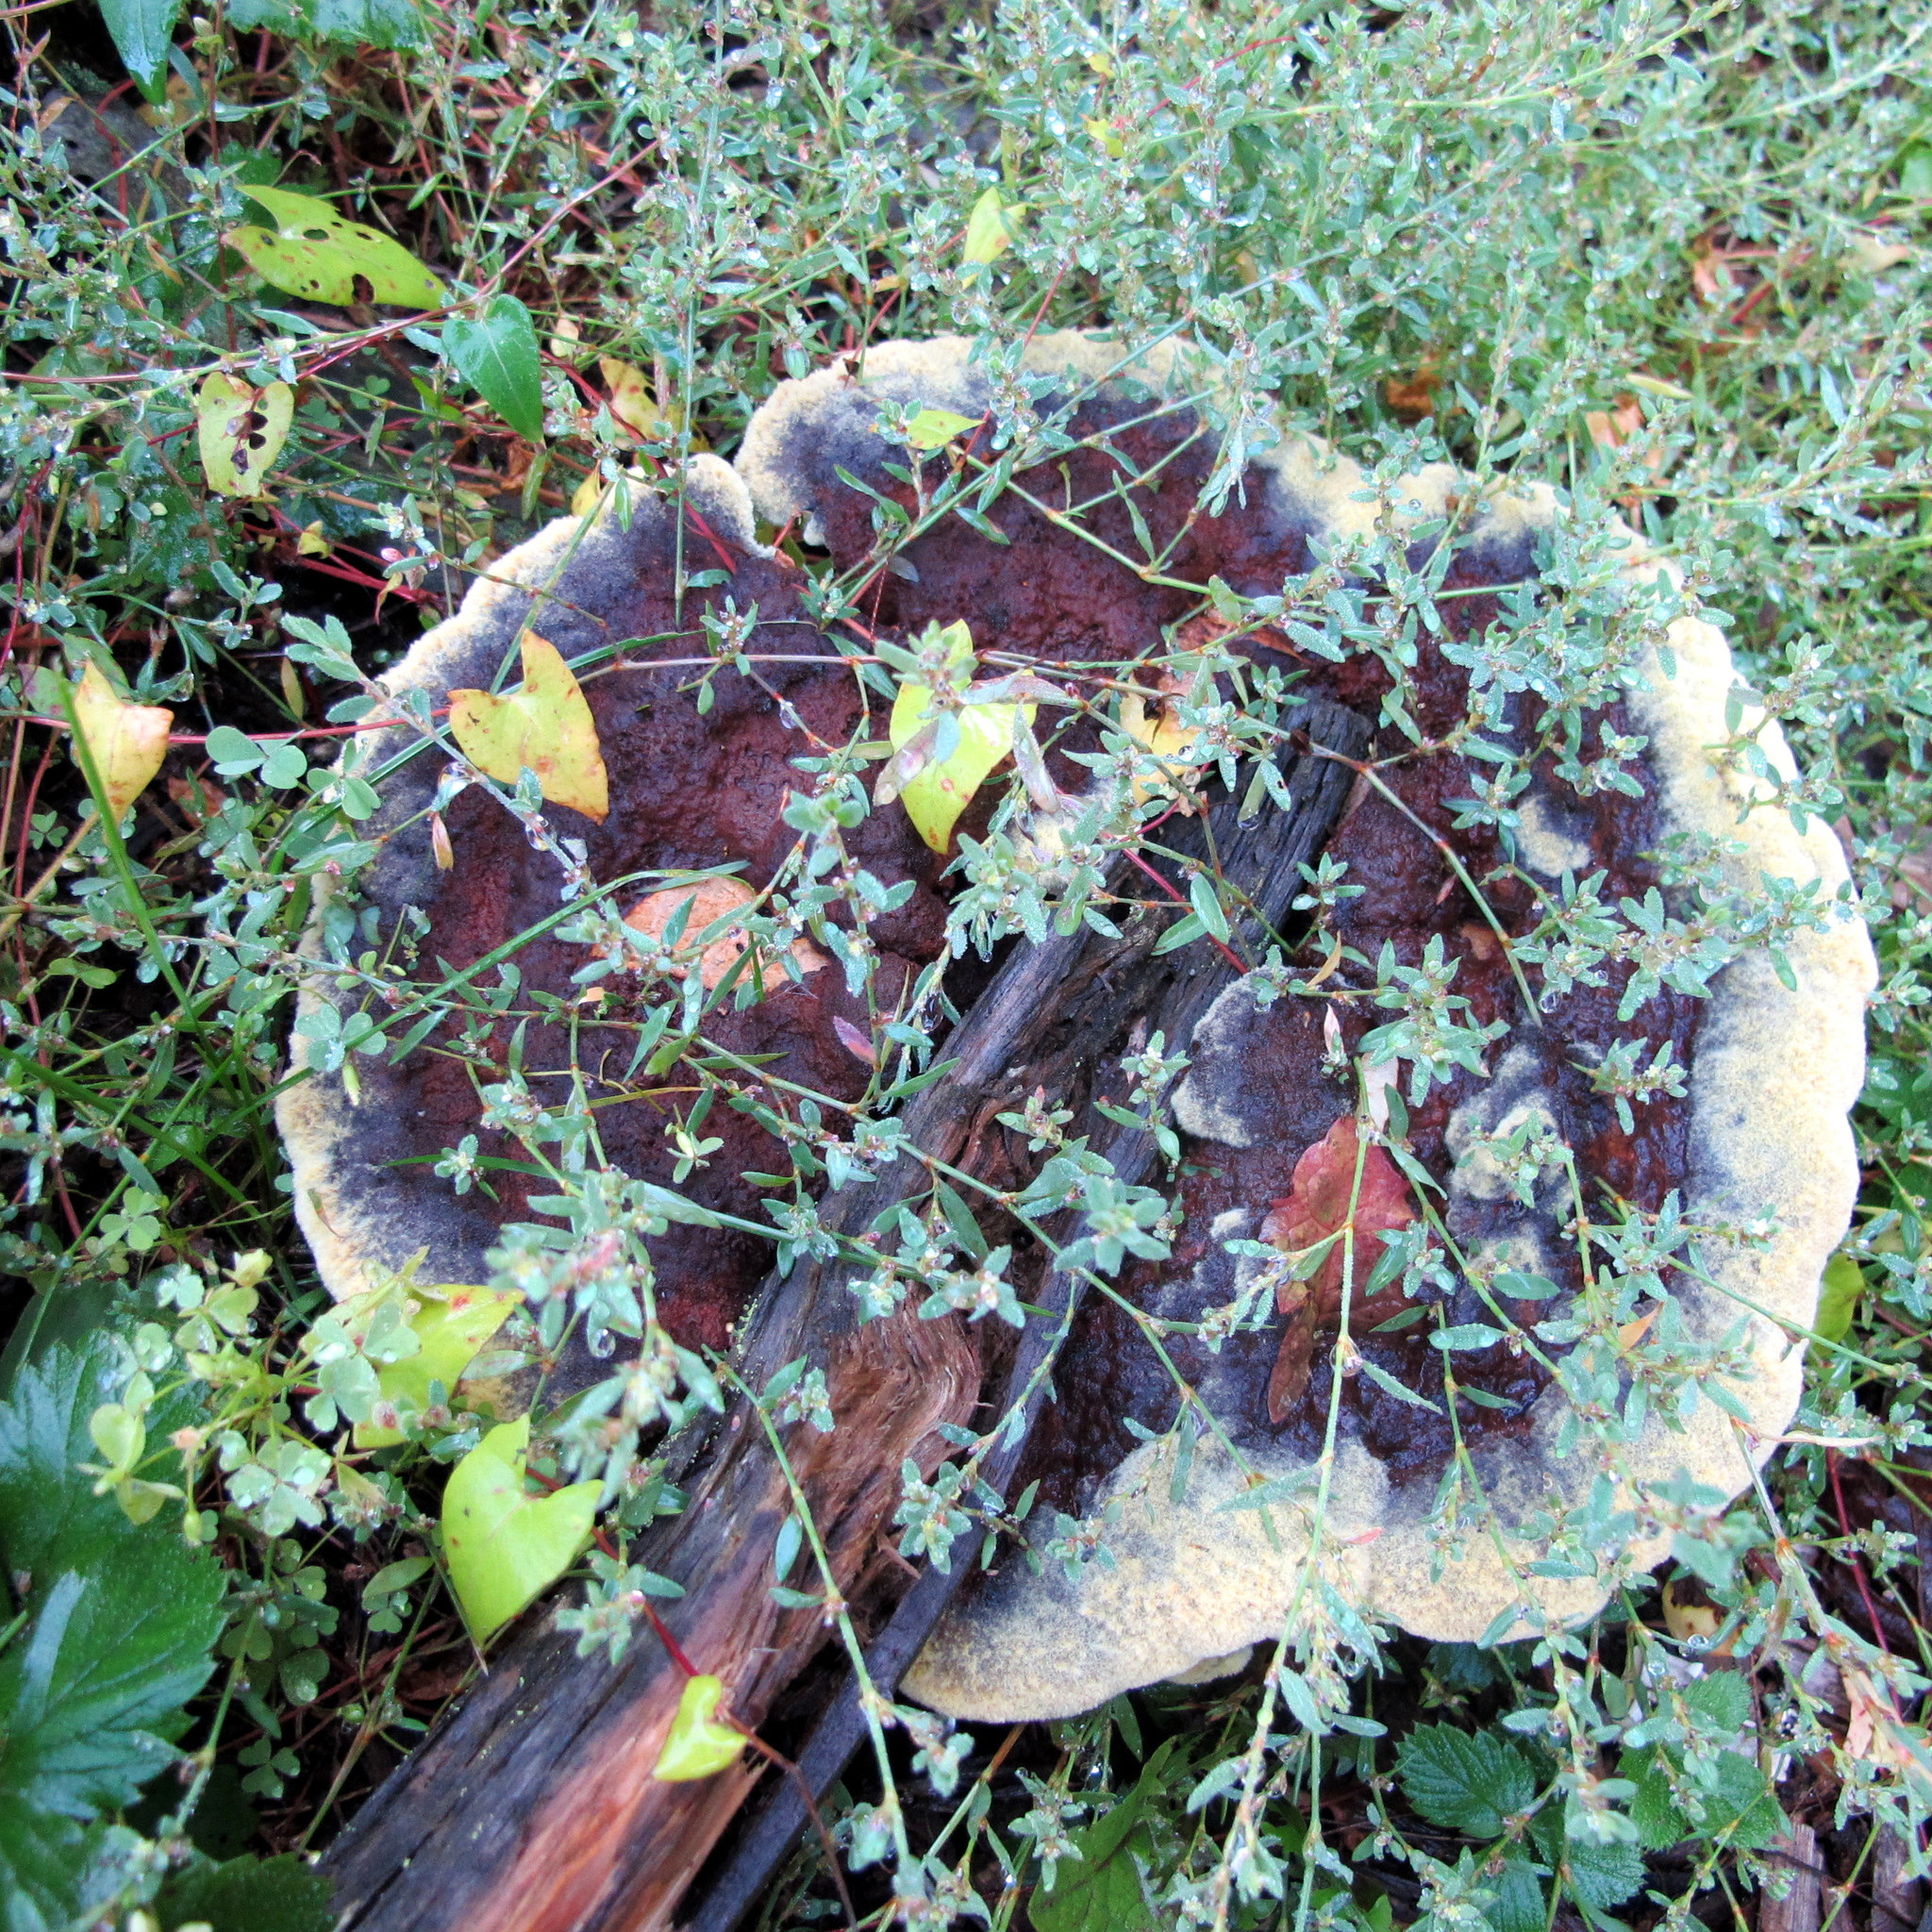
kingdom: Fungi
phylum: Basidiomycota
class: Agaricomycetes
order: Polyporales
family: Laetiporaceae
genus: Phaeolus
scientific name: Phaeolus schweinitzii
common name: Dyer's mazegill
